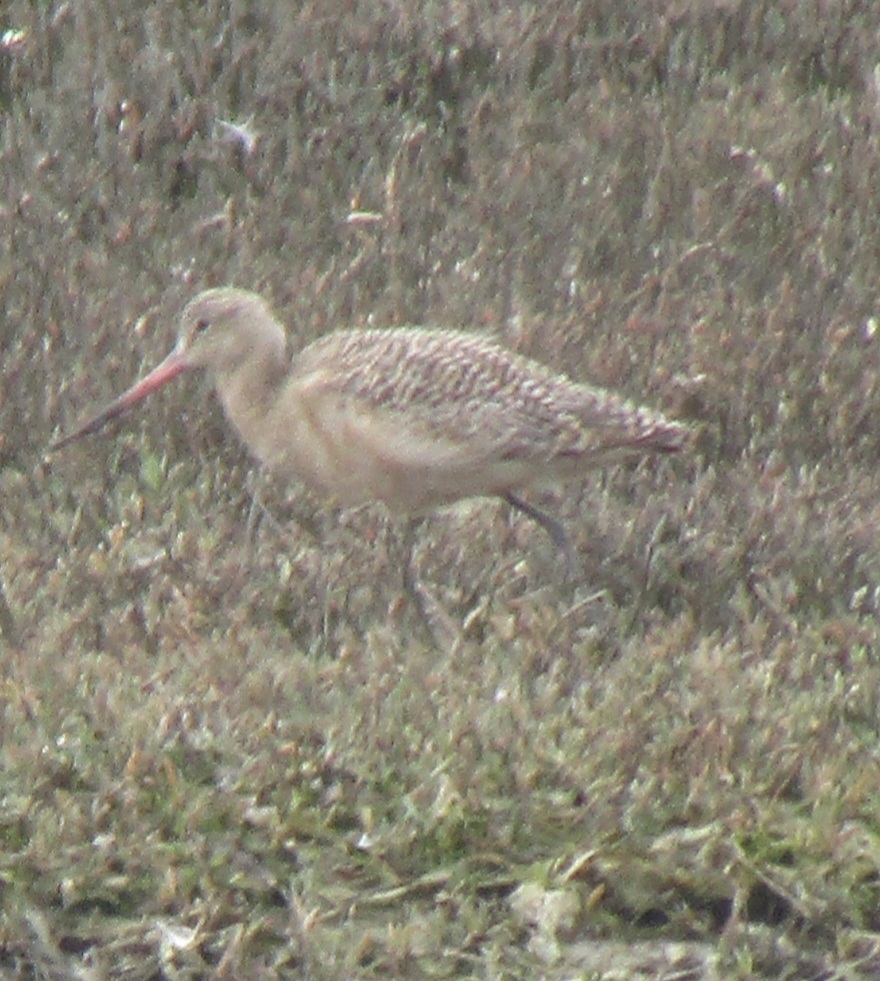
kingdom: Animalia
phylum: Chordata
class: Aves
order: Charadriiformes
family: Scolopacidae
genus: Limosa
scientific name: Limosa fedoa
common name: Marbled godwit
